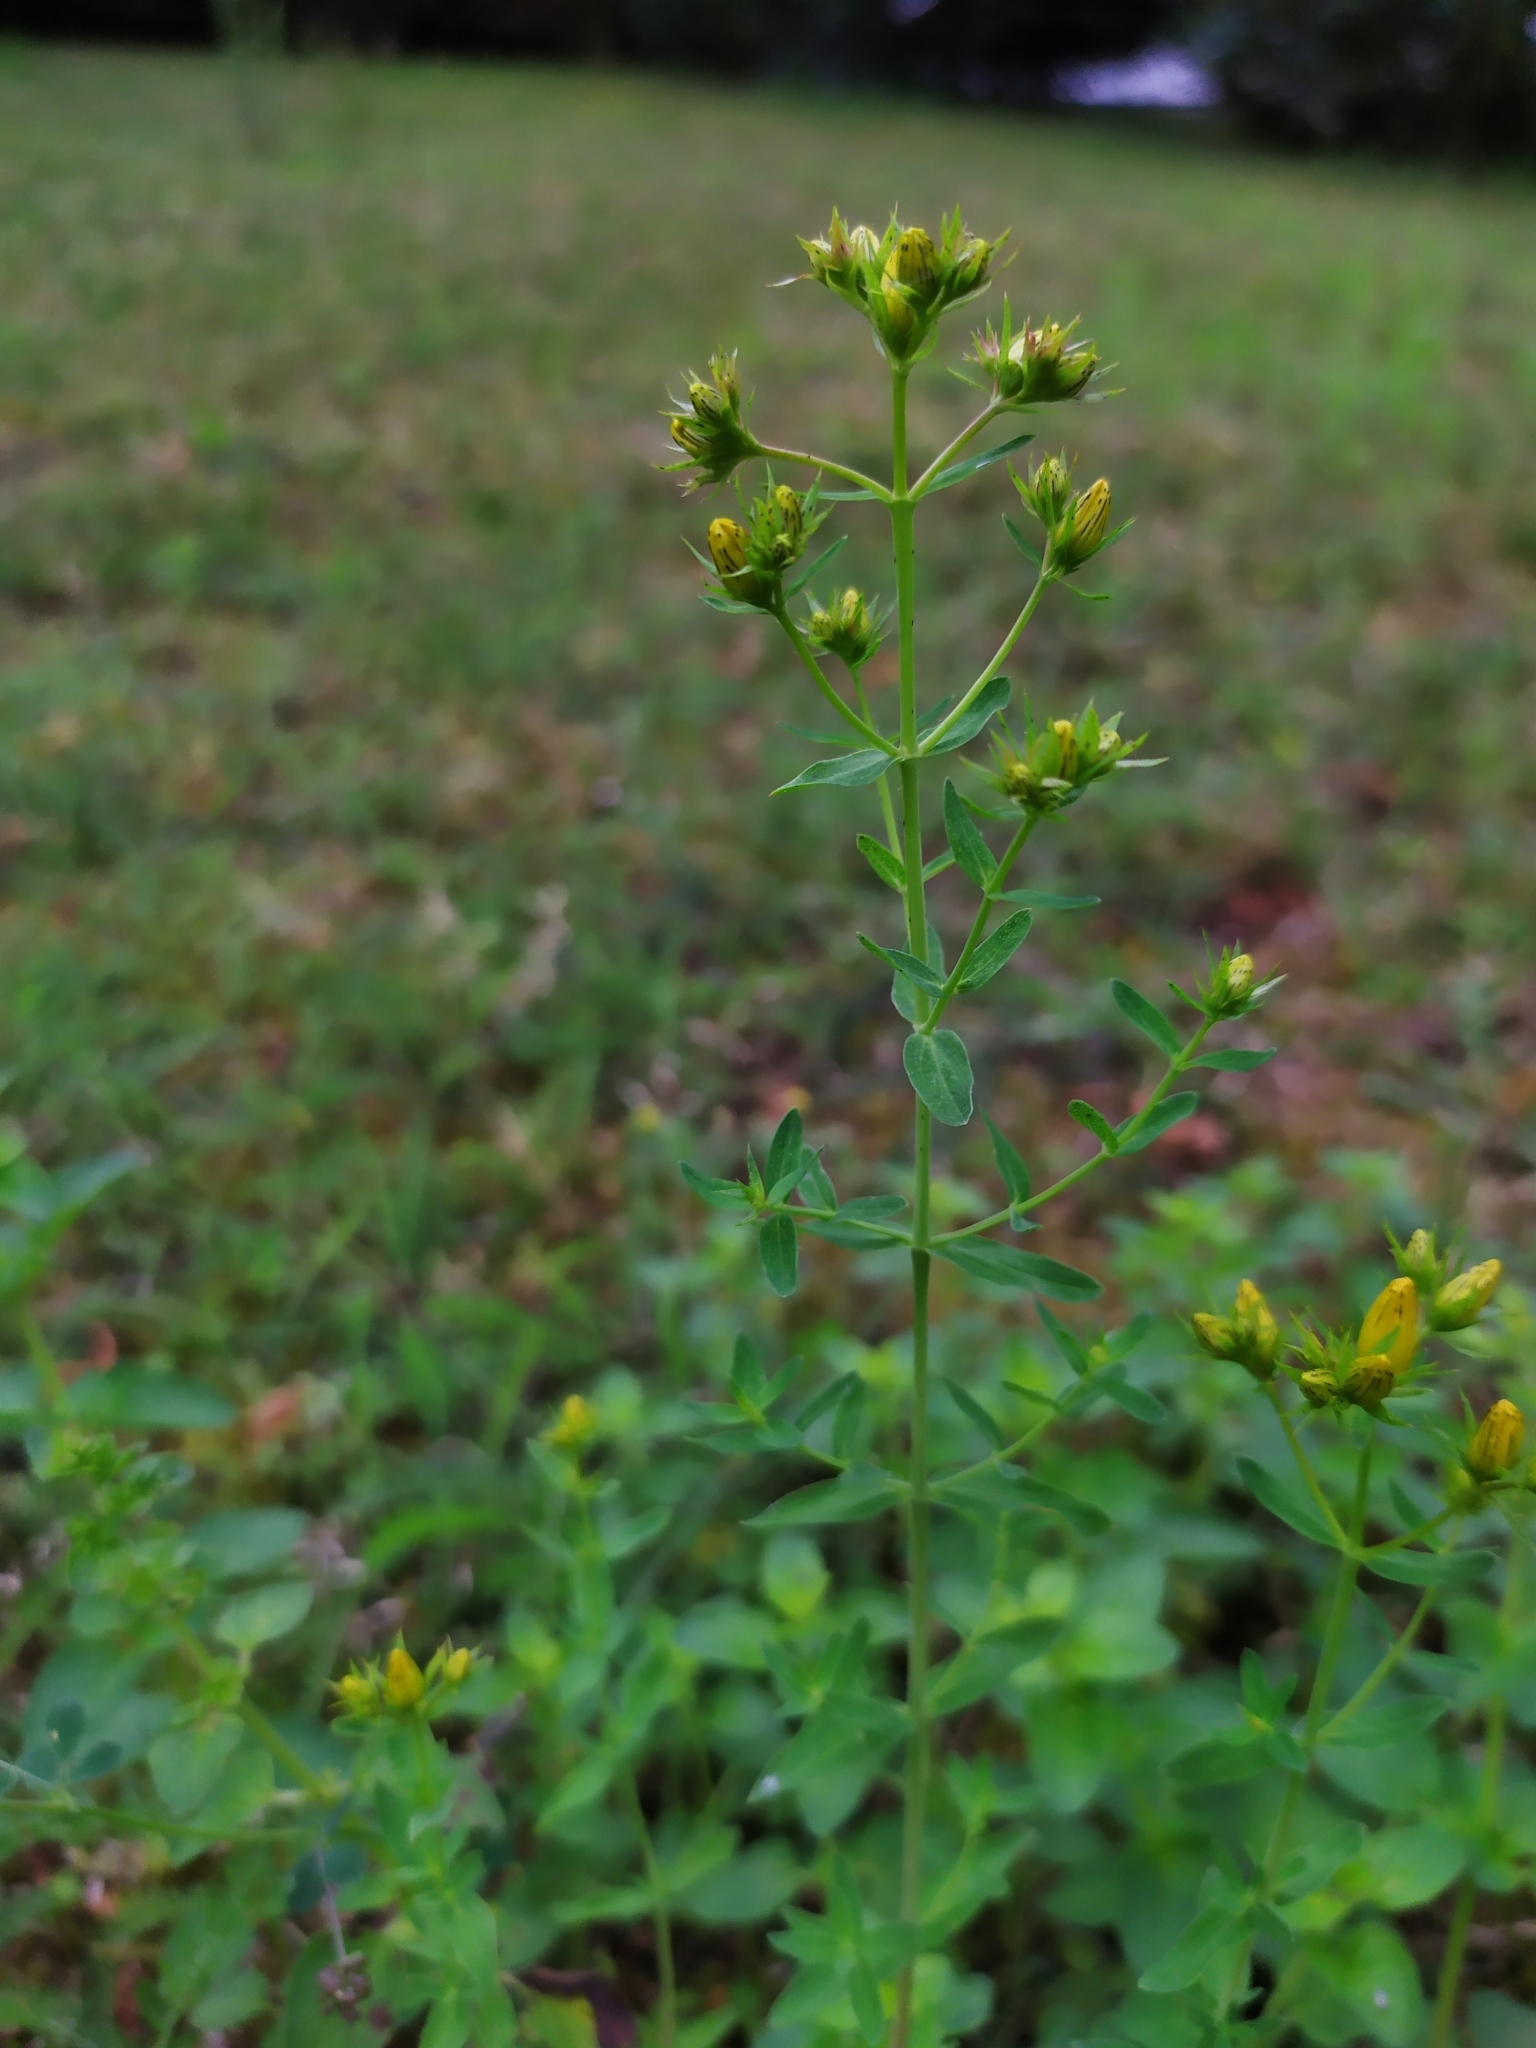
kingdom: Plantae
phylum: Tracheophyta
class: Magnoliopsida
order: Malpighiales
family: Hypericaceae
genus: Hypericum
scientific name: Hypericum desetangsii
